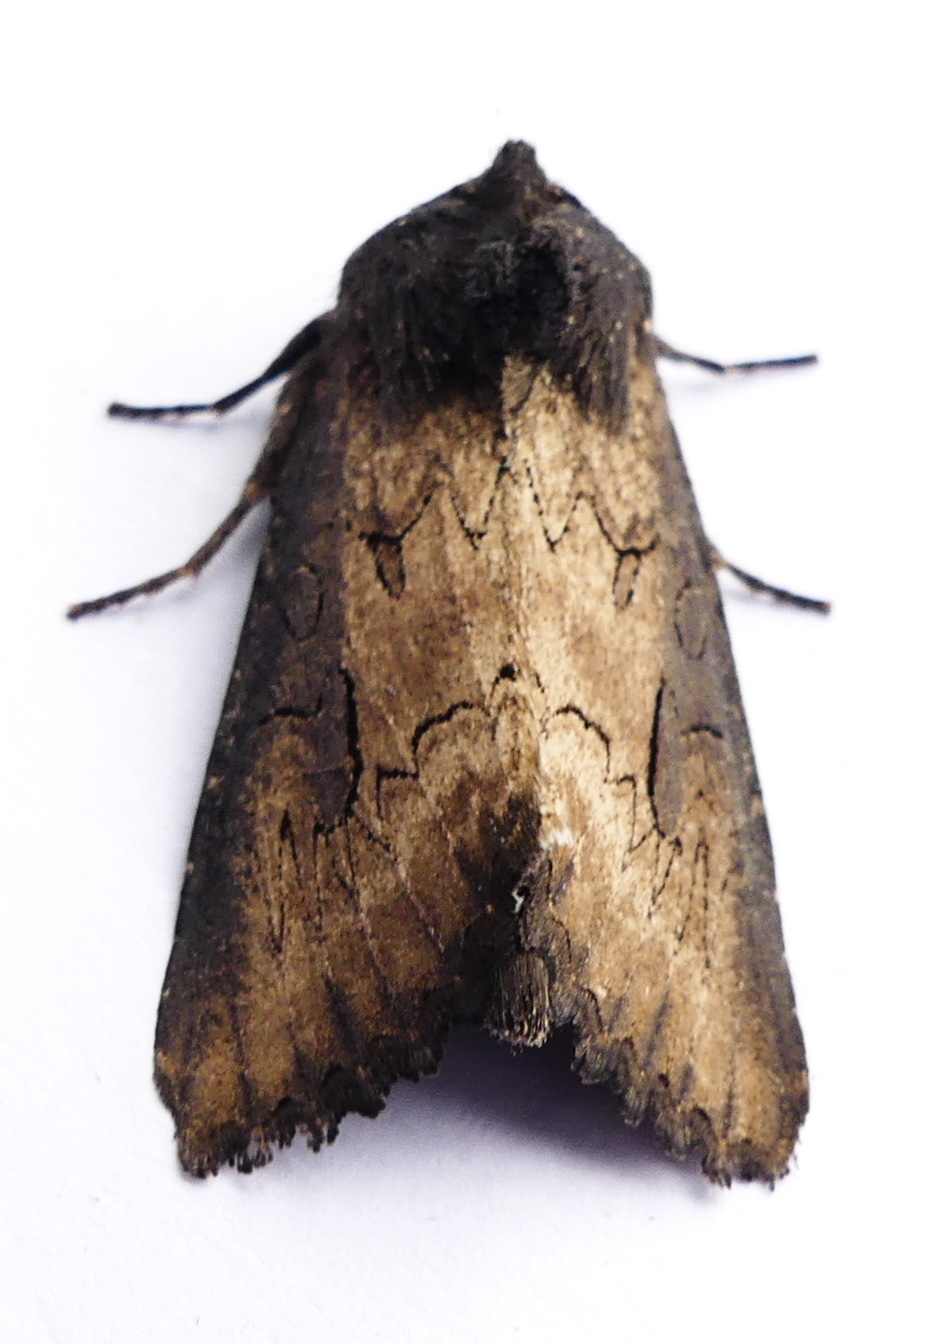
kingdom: Animalia
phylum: Arthropoda
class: Insecta
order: Lepidoptera
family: Noctuidae
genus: Macronoctua
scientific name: Macronoctua onusta
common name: Iris borer
